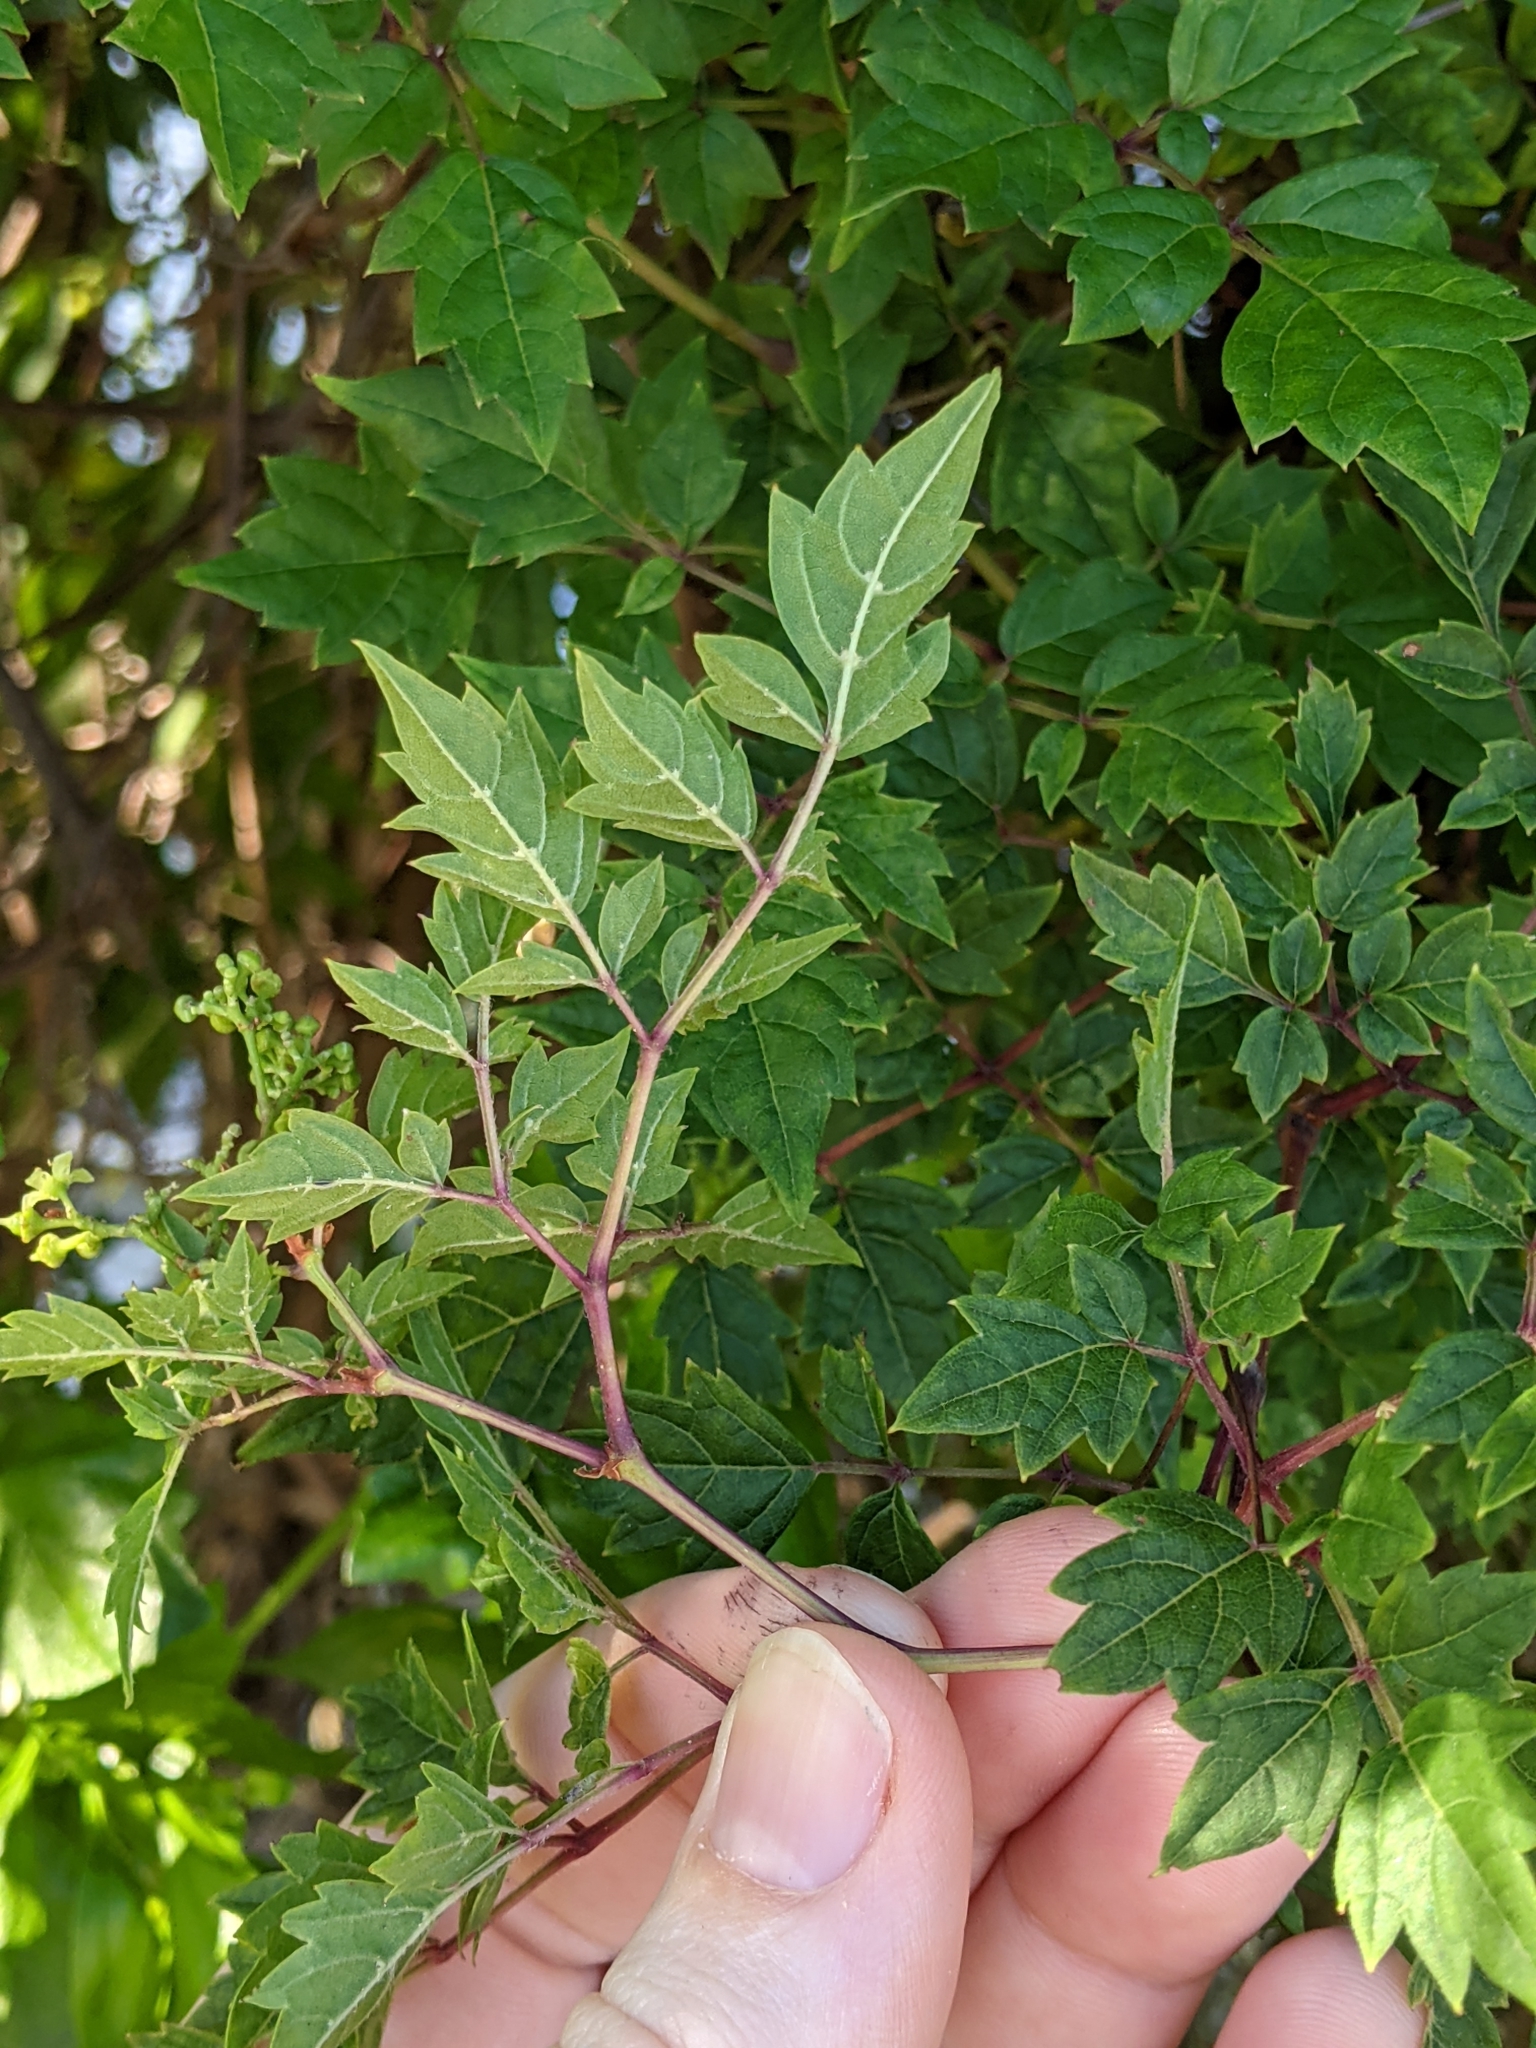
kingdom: Plantae
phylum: Tracheophyta
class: Magnoliopsida
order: Vitales
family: Vitaceae
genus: Nekemias
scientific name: Nekemias arborea
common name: Peppervine
